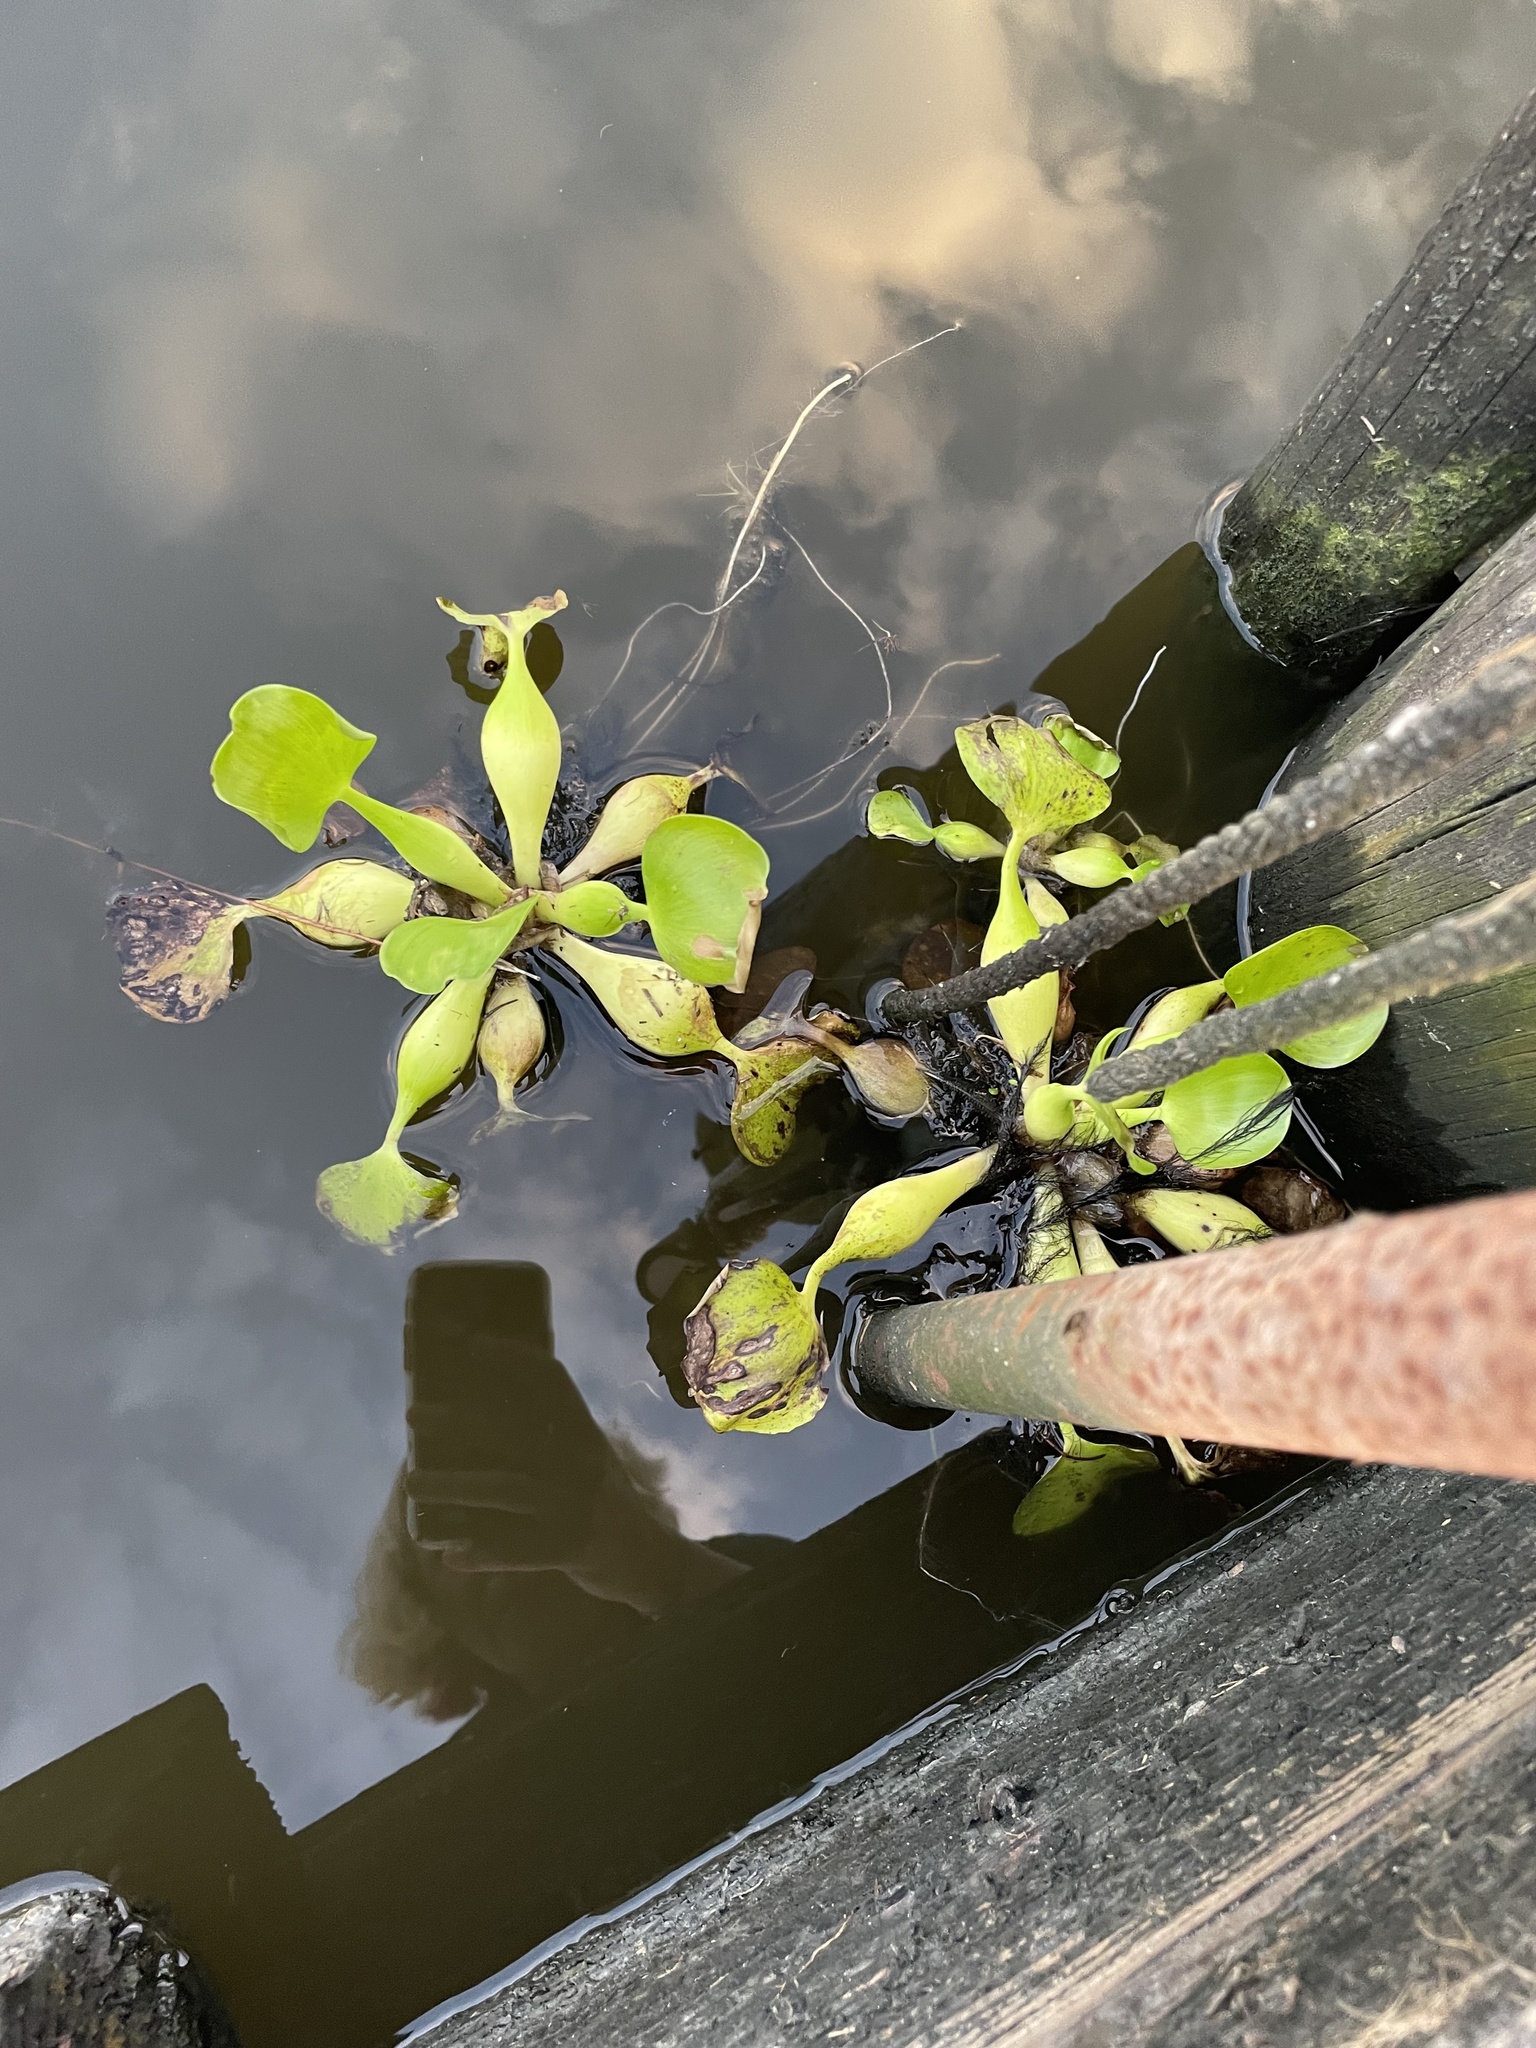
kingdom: Plantae
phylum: Tracheophyta
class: Liliopsida
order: Commelinales
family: Pontederiaceae
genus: Pontederia
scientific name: Pontederia crassipes
